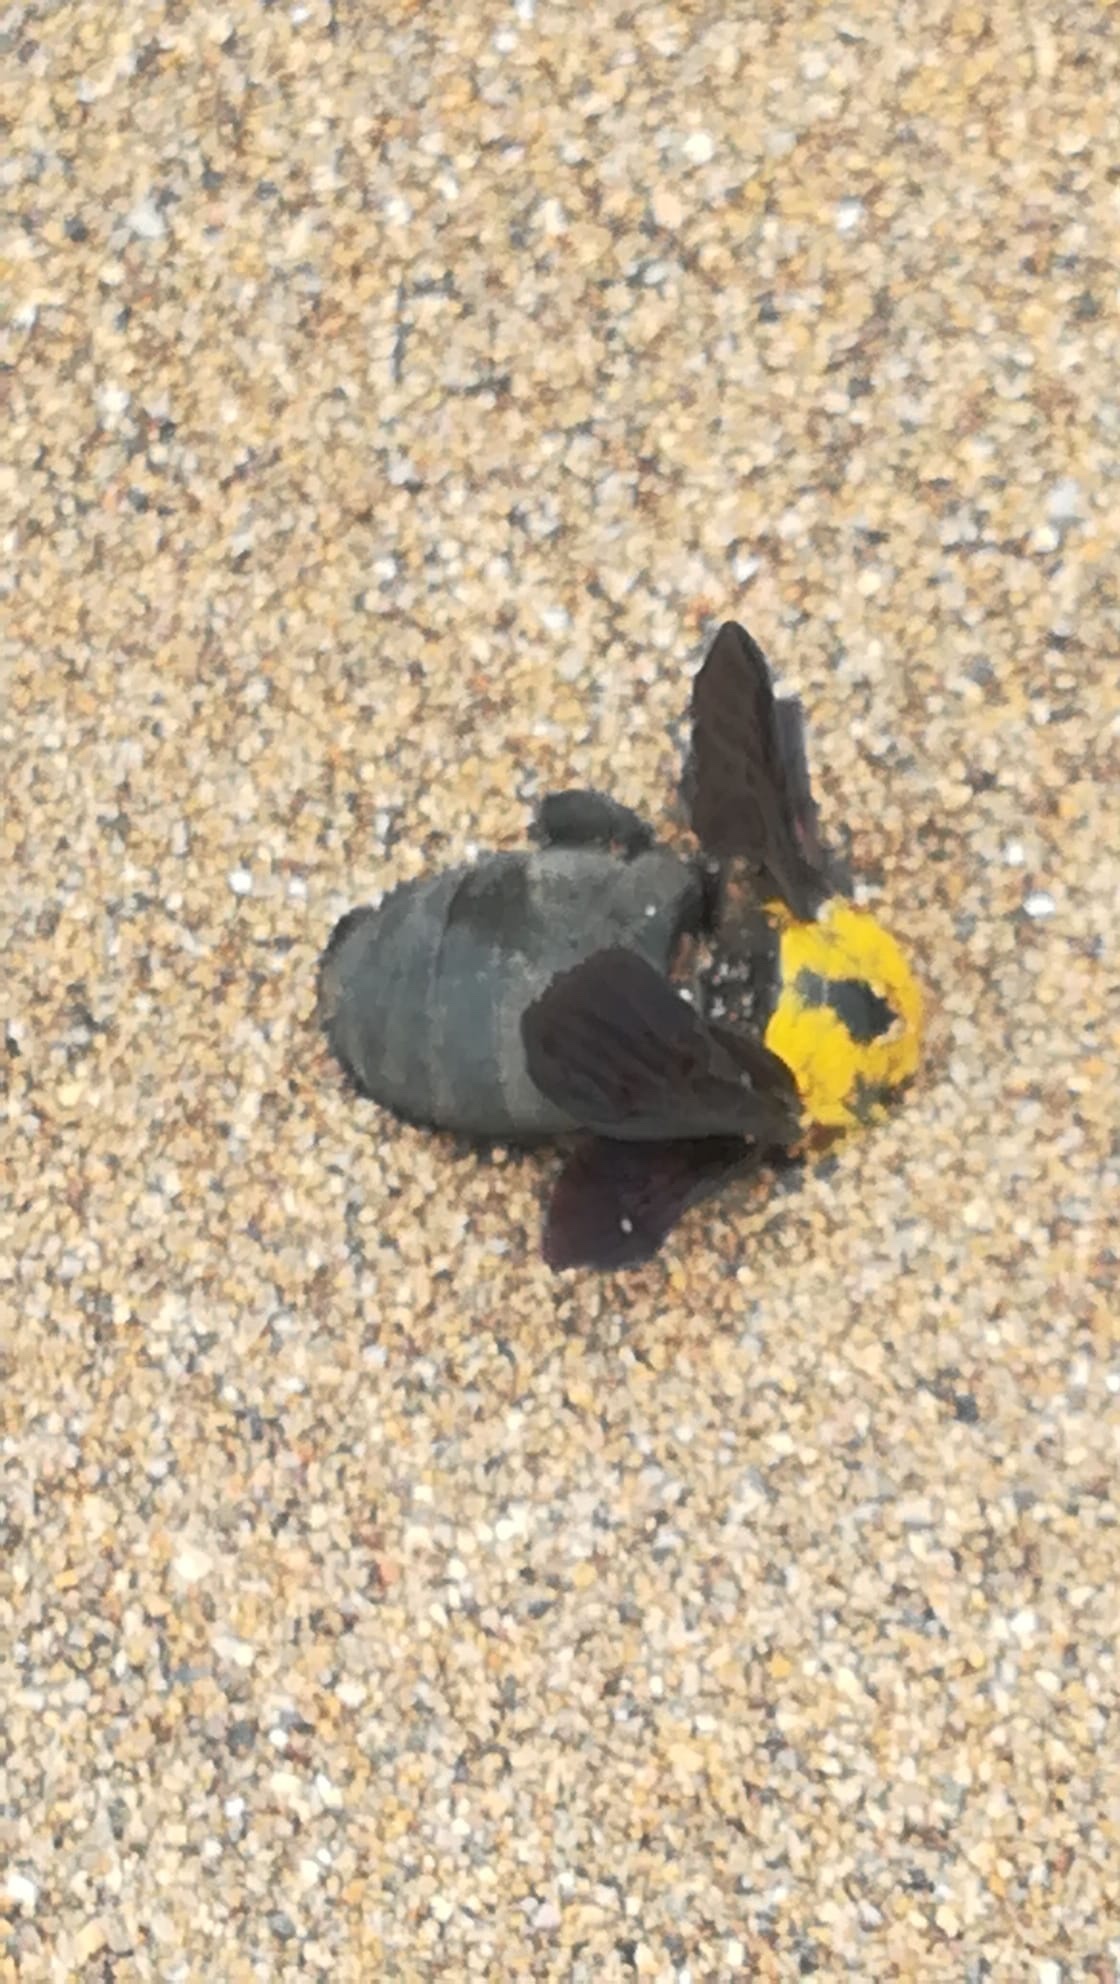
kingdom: Animalia
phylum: Arthropoda
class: Insecta
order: Hymenoptera
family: Apidae
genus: Xylocopa
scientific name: Xylocopa pubescens
